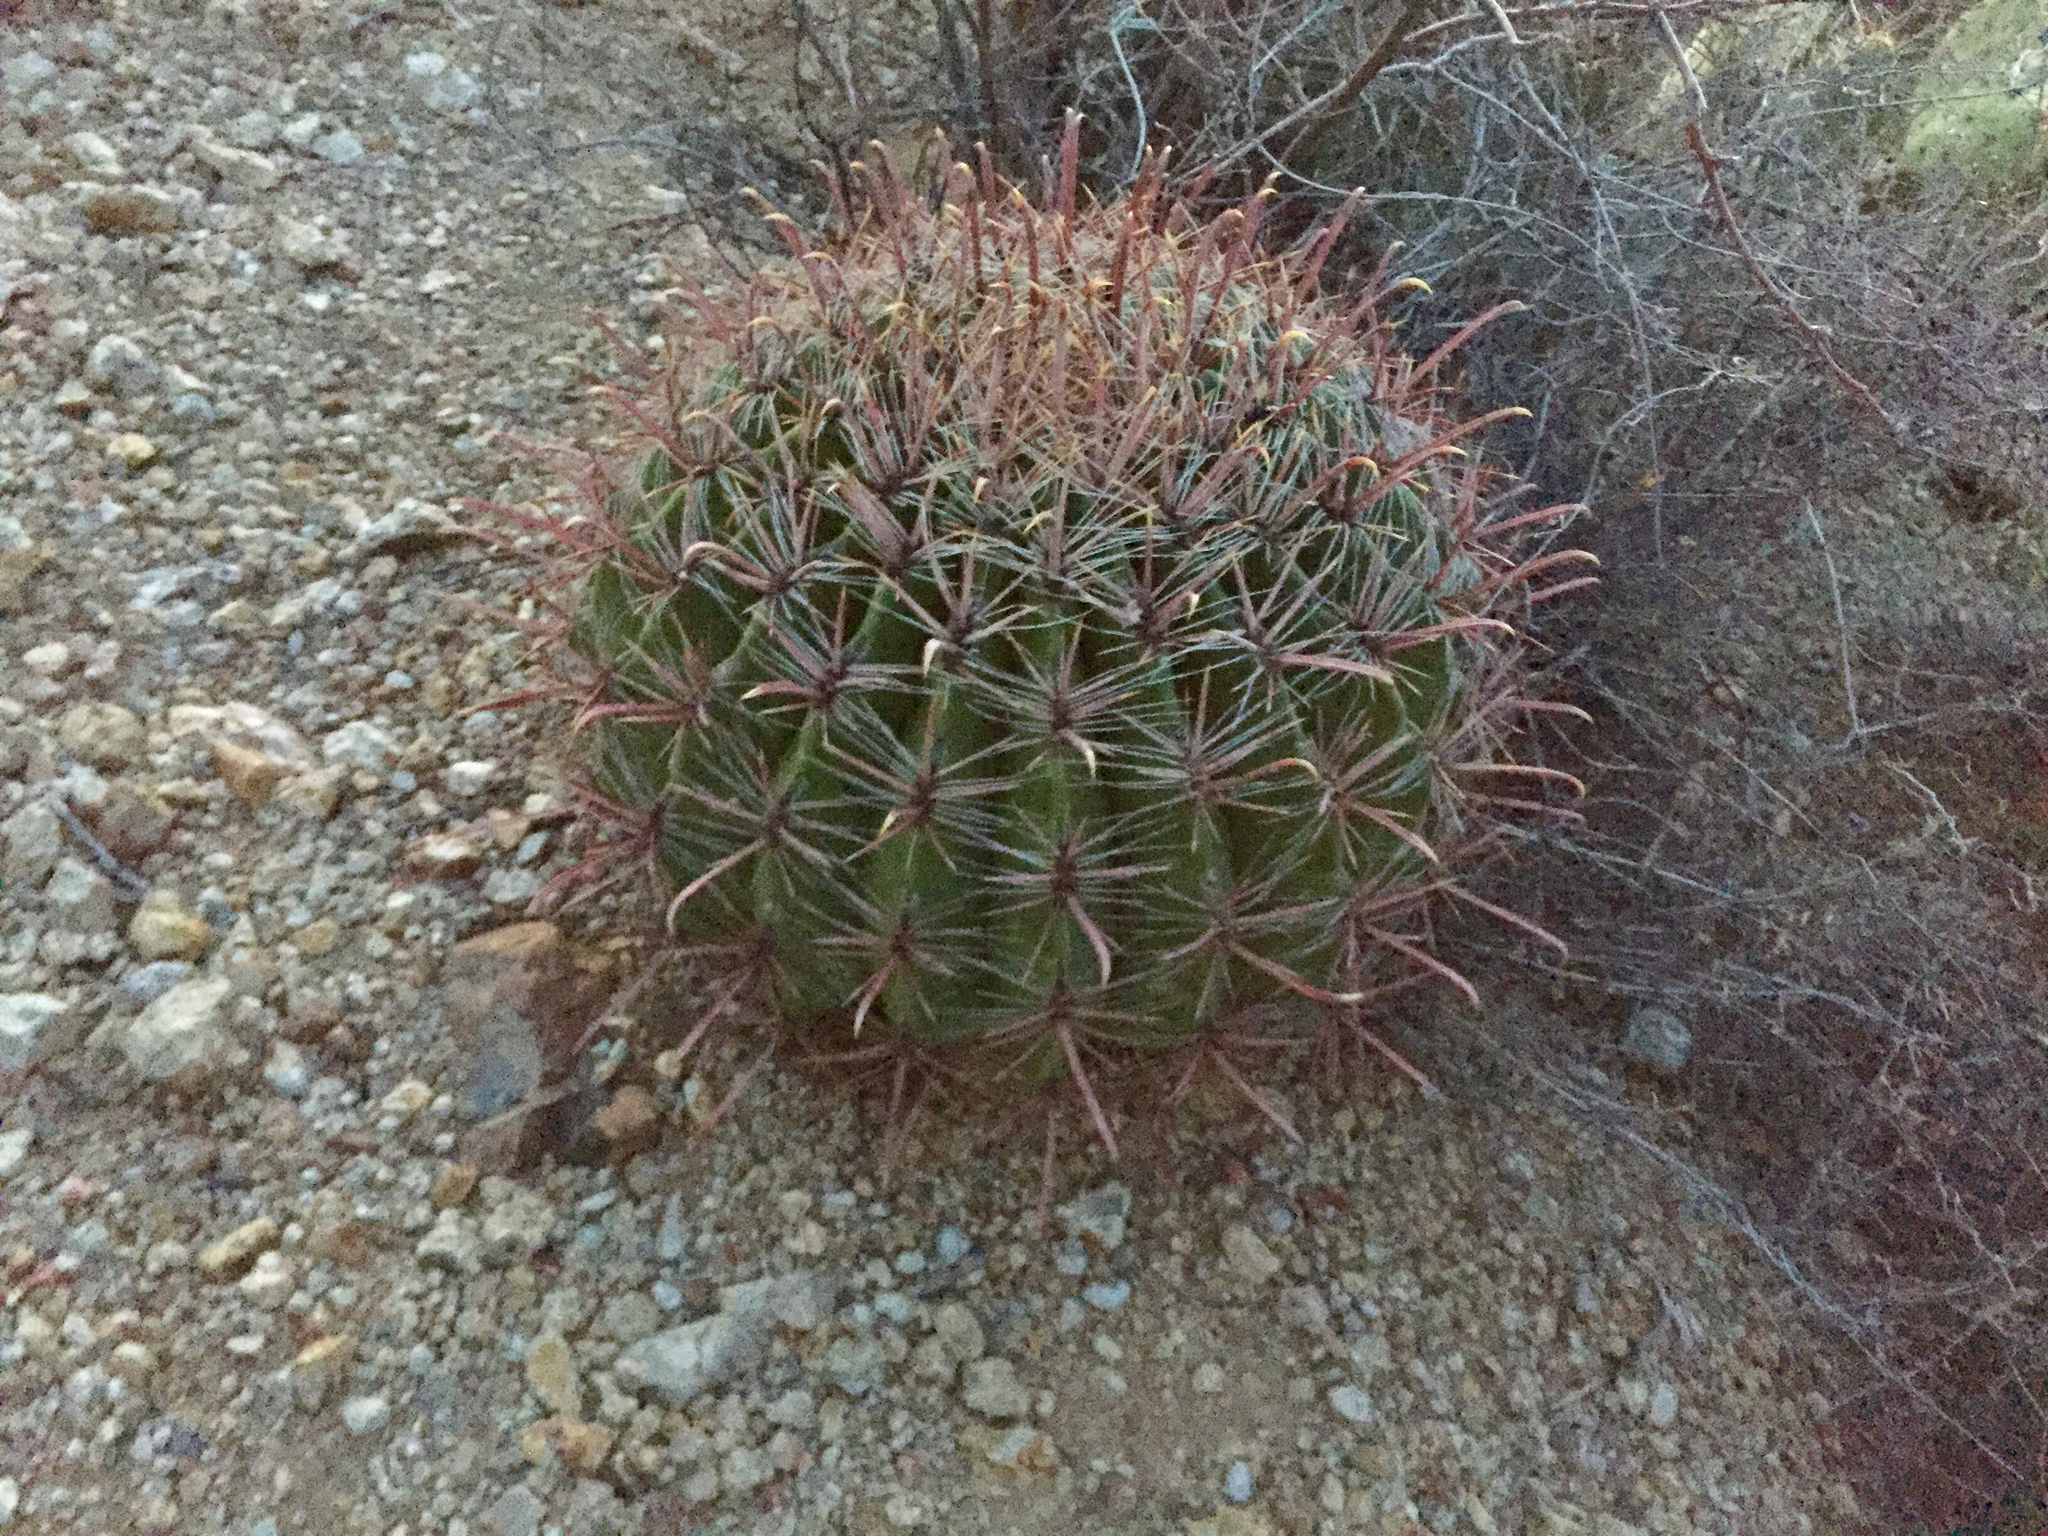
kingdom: Plantae
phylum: Tracheophyta
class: Magnoliopsida
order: Caryophyllales
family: Cactaceae
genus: Ferocactus
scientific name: Ferocactus wislizeni
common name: Candy barrel cactus
